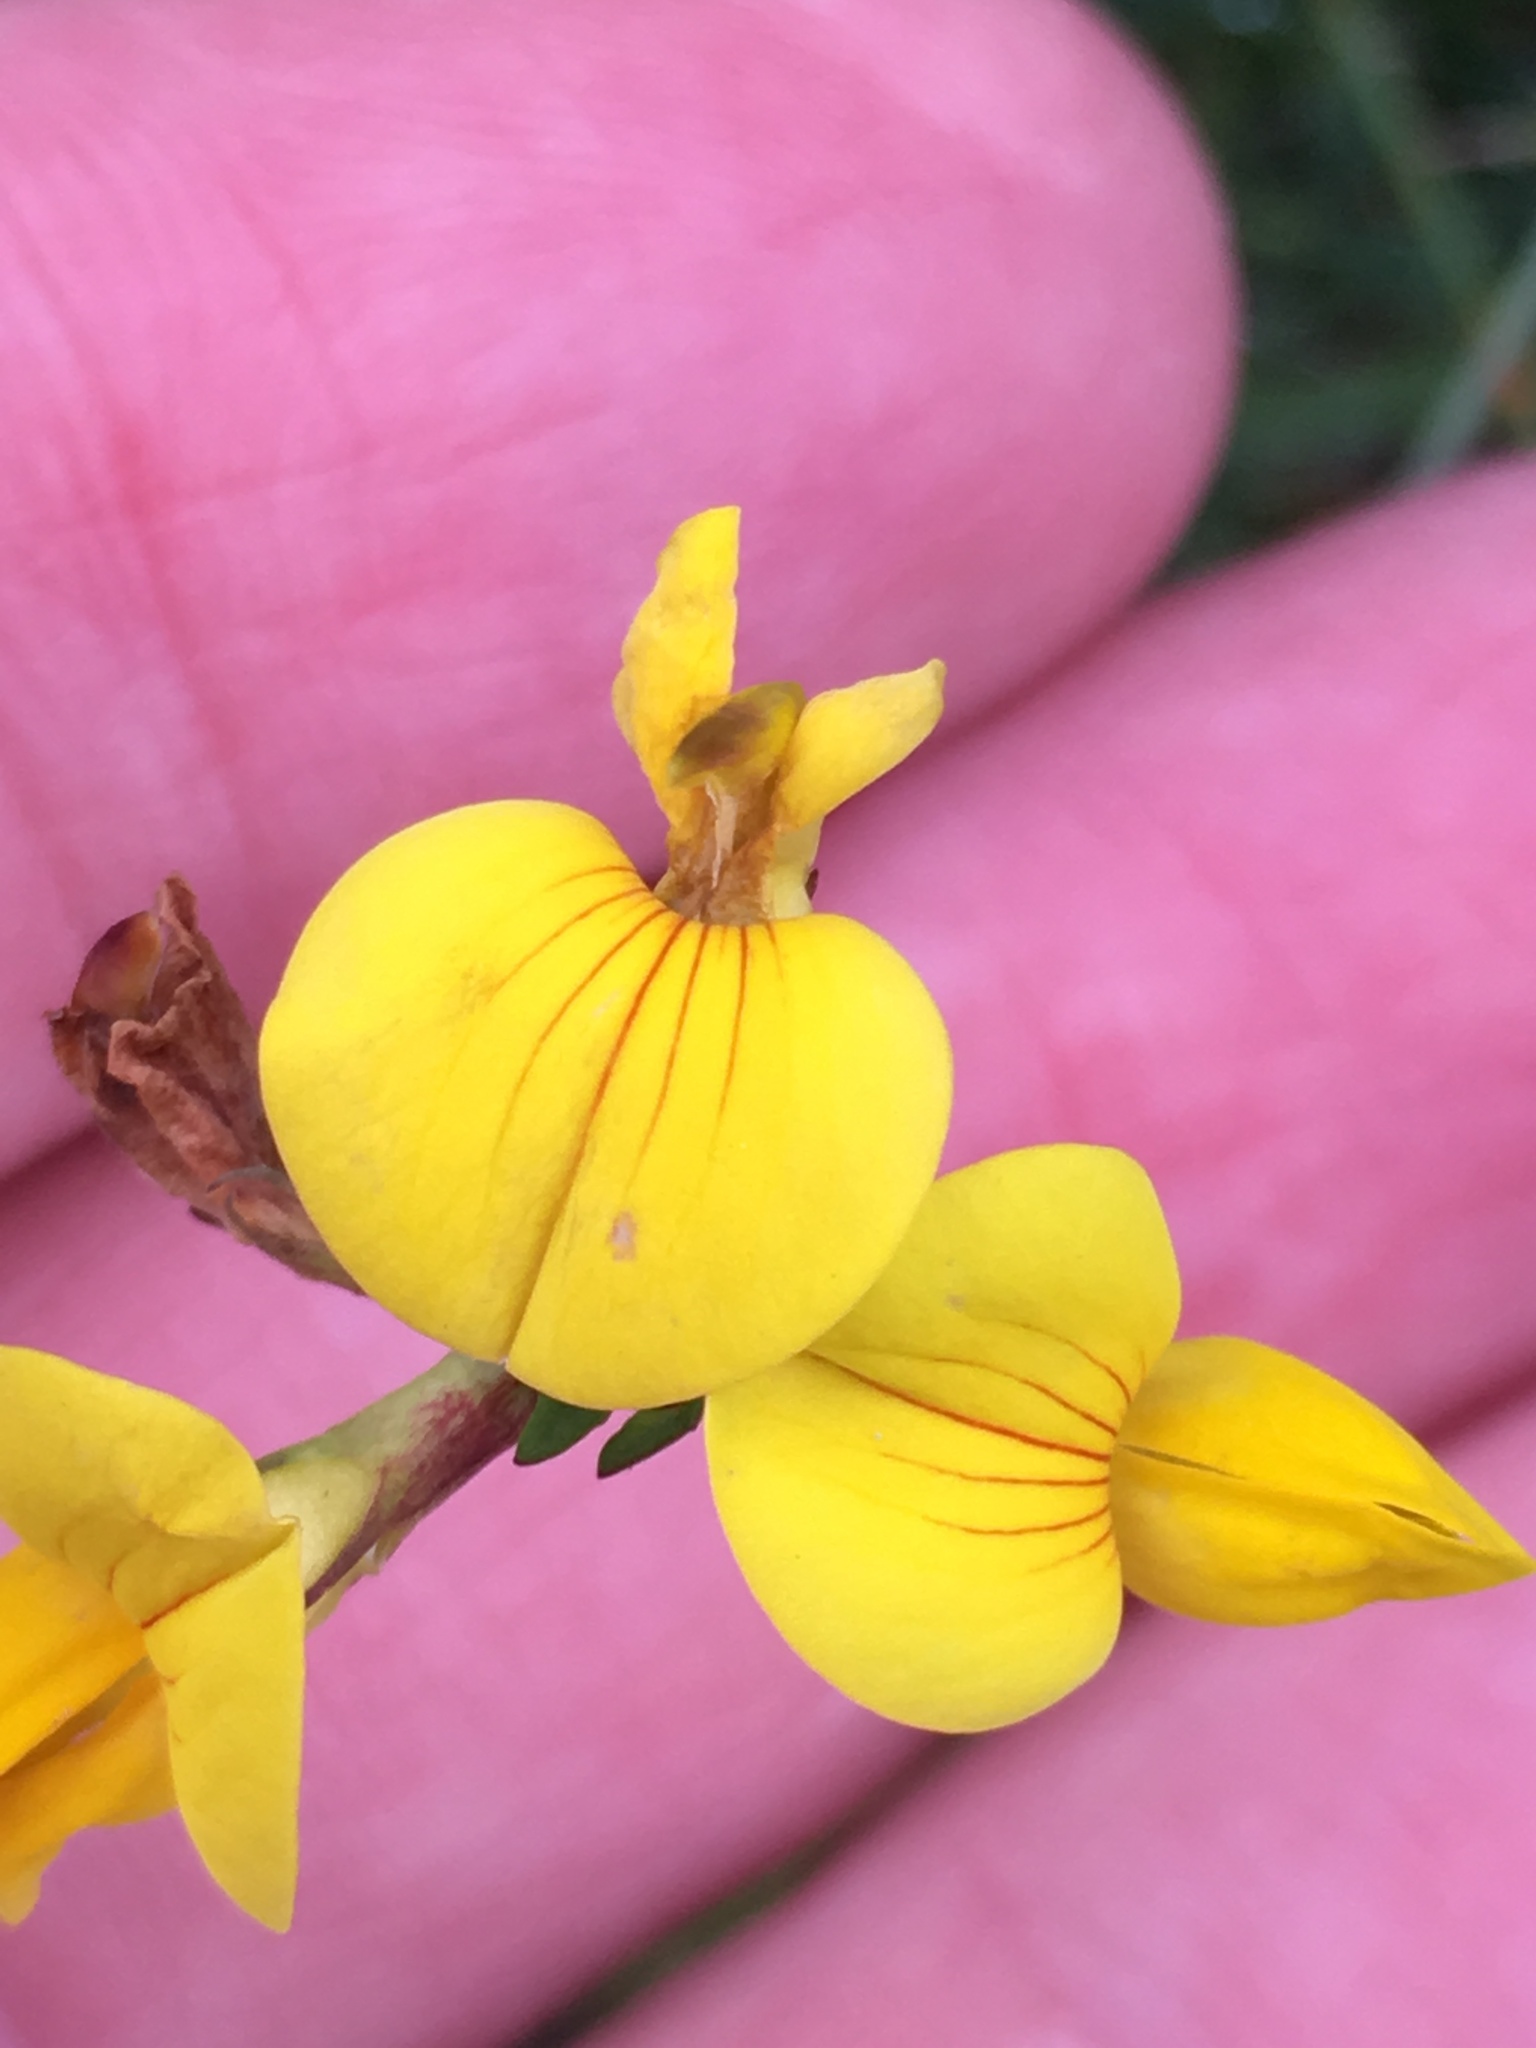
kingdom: Plantae
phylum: Tracheophyta
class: Magnoliopsida
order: Fabales
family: Fabaceae
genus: Lotus
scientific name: Lotus corniculatus
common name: Common bird's-foot-trefoil
